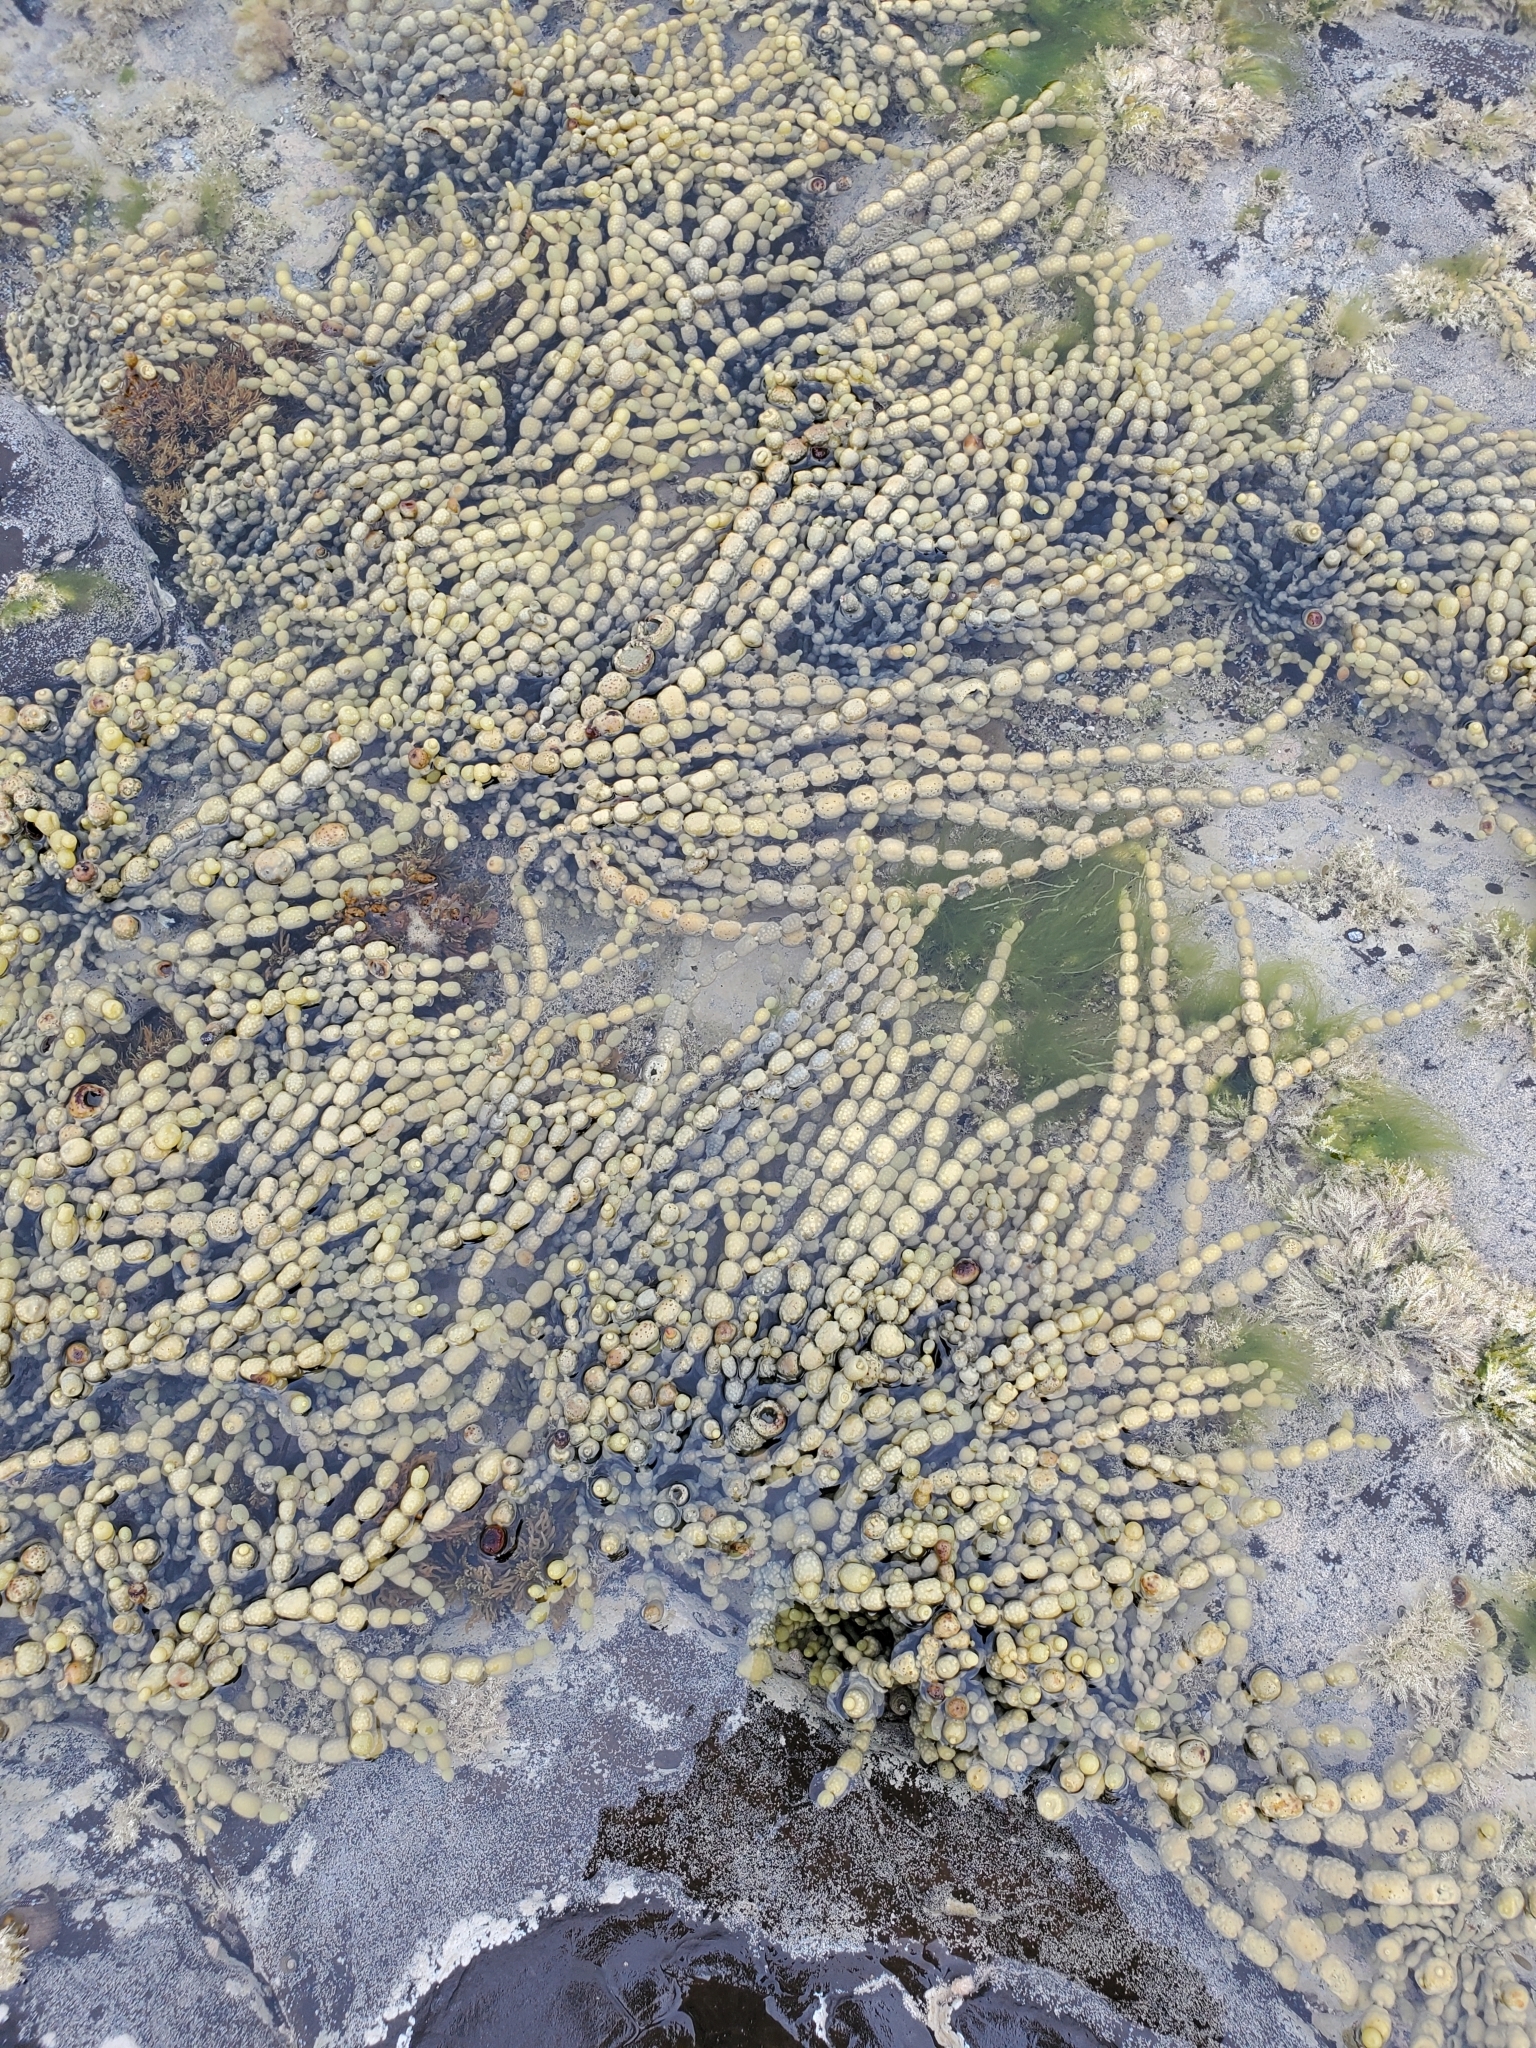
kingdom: Chromista
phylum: Ochrophyta
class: Phaeophyceae
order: Fucales
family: Hormosiraceae
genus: Hormosira
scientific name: Hormosira banksii
